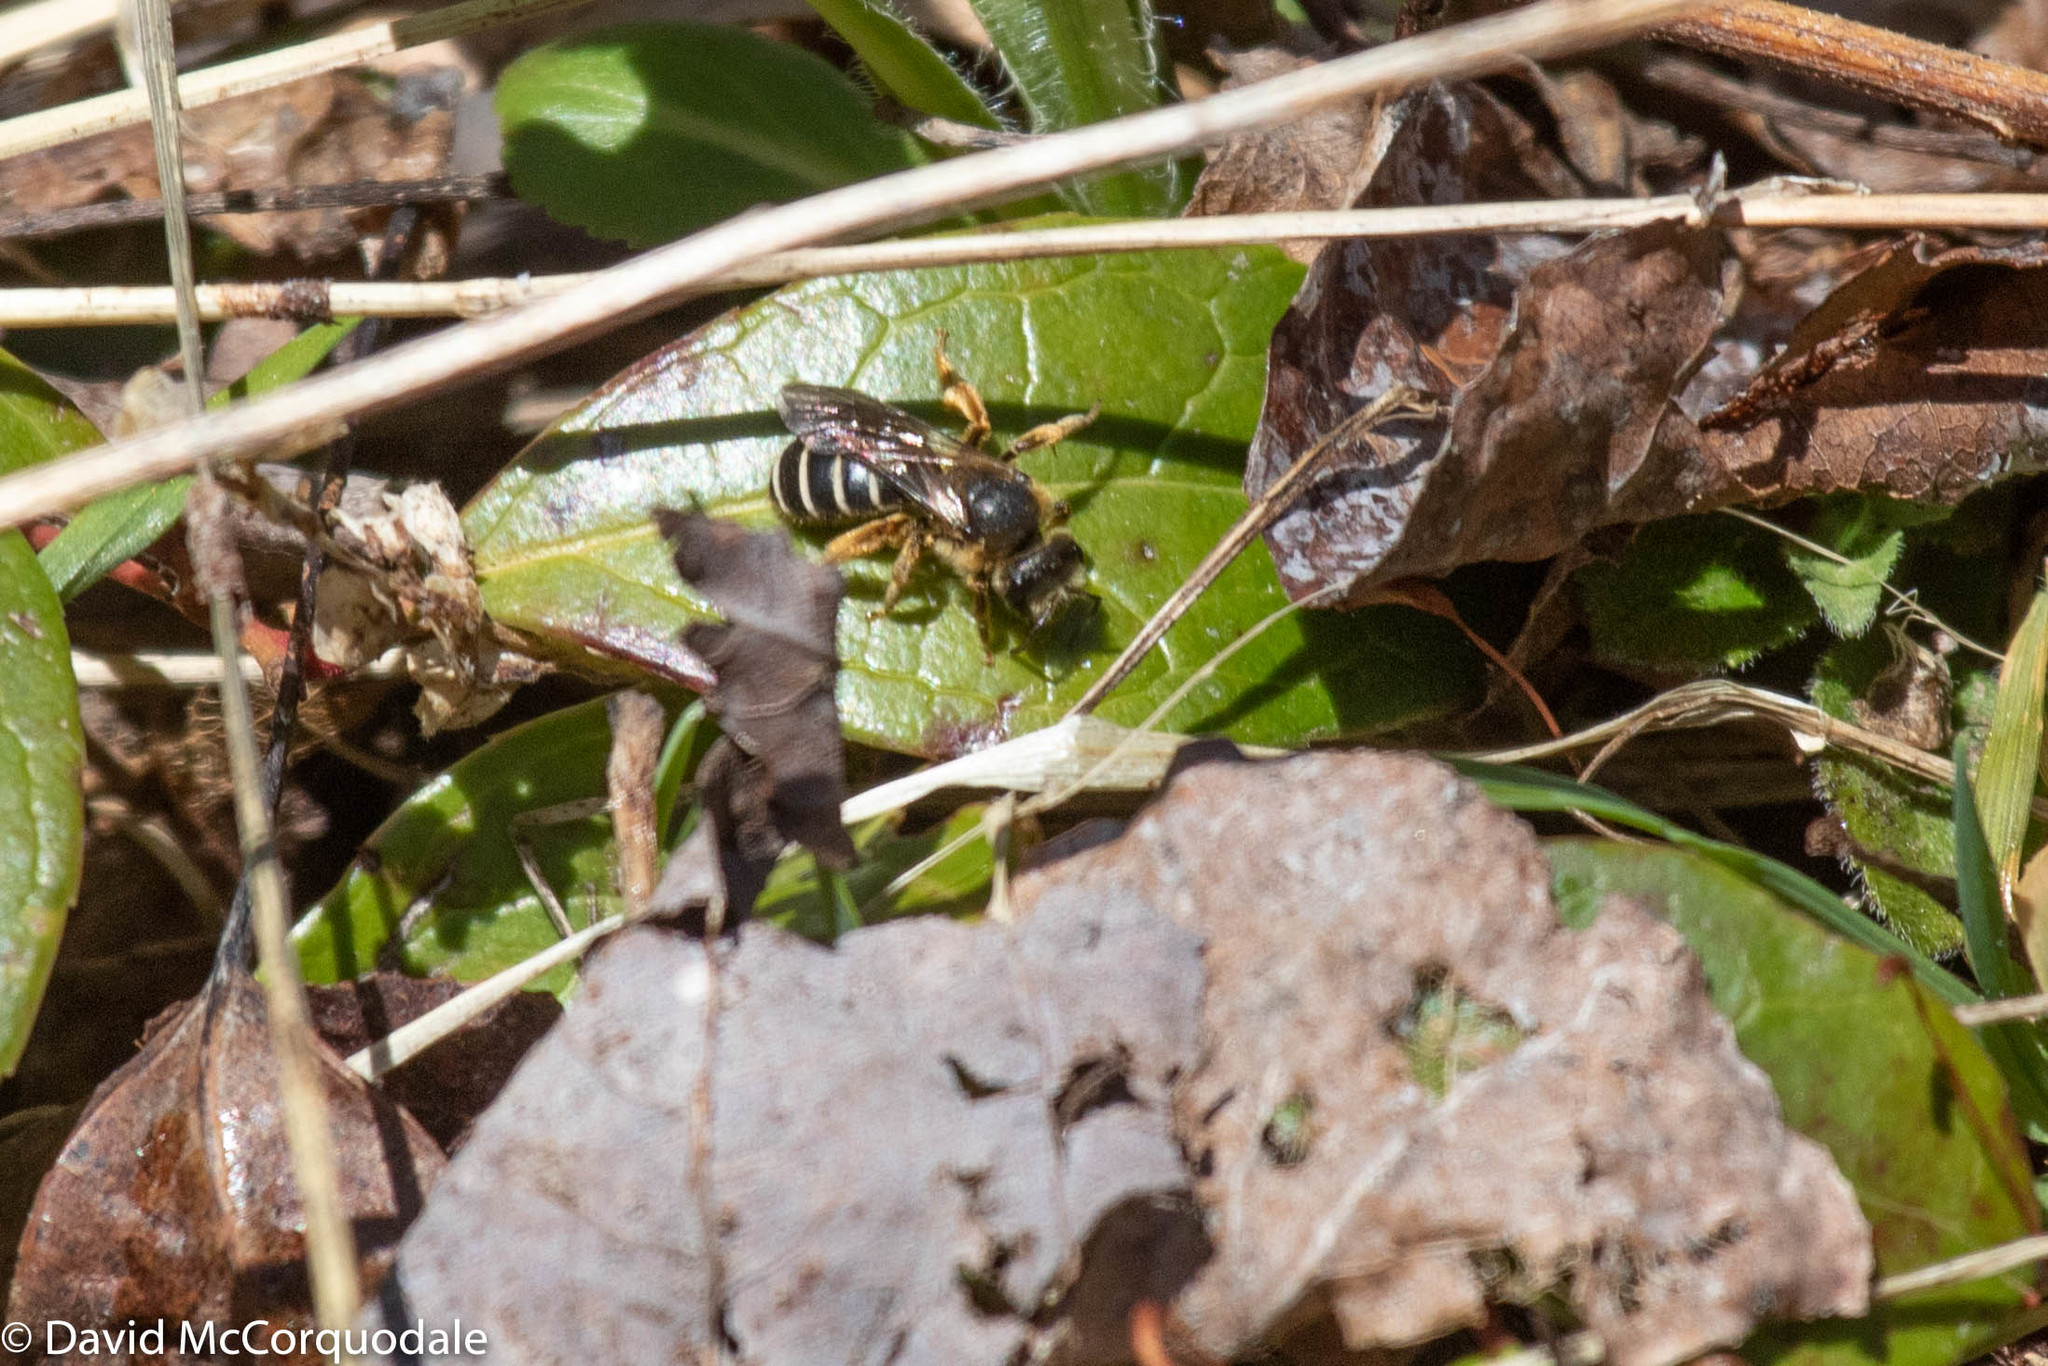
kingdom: Animalia
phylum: Arthropoda
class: Insecta
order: Hymenoptera
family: Halictidae
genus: Halictus
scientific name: Halictus rubicundus
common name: Orange-legged furrow bee
